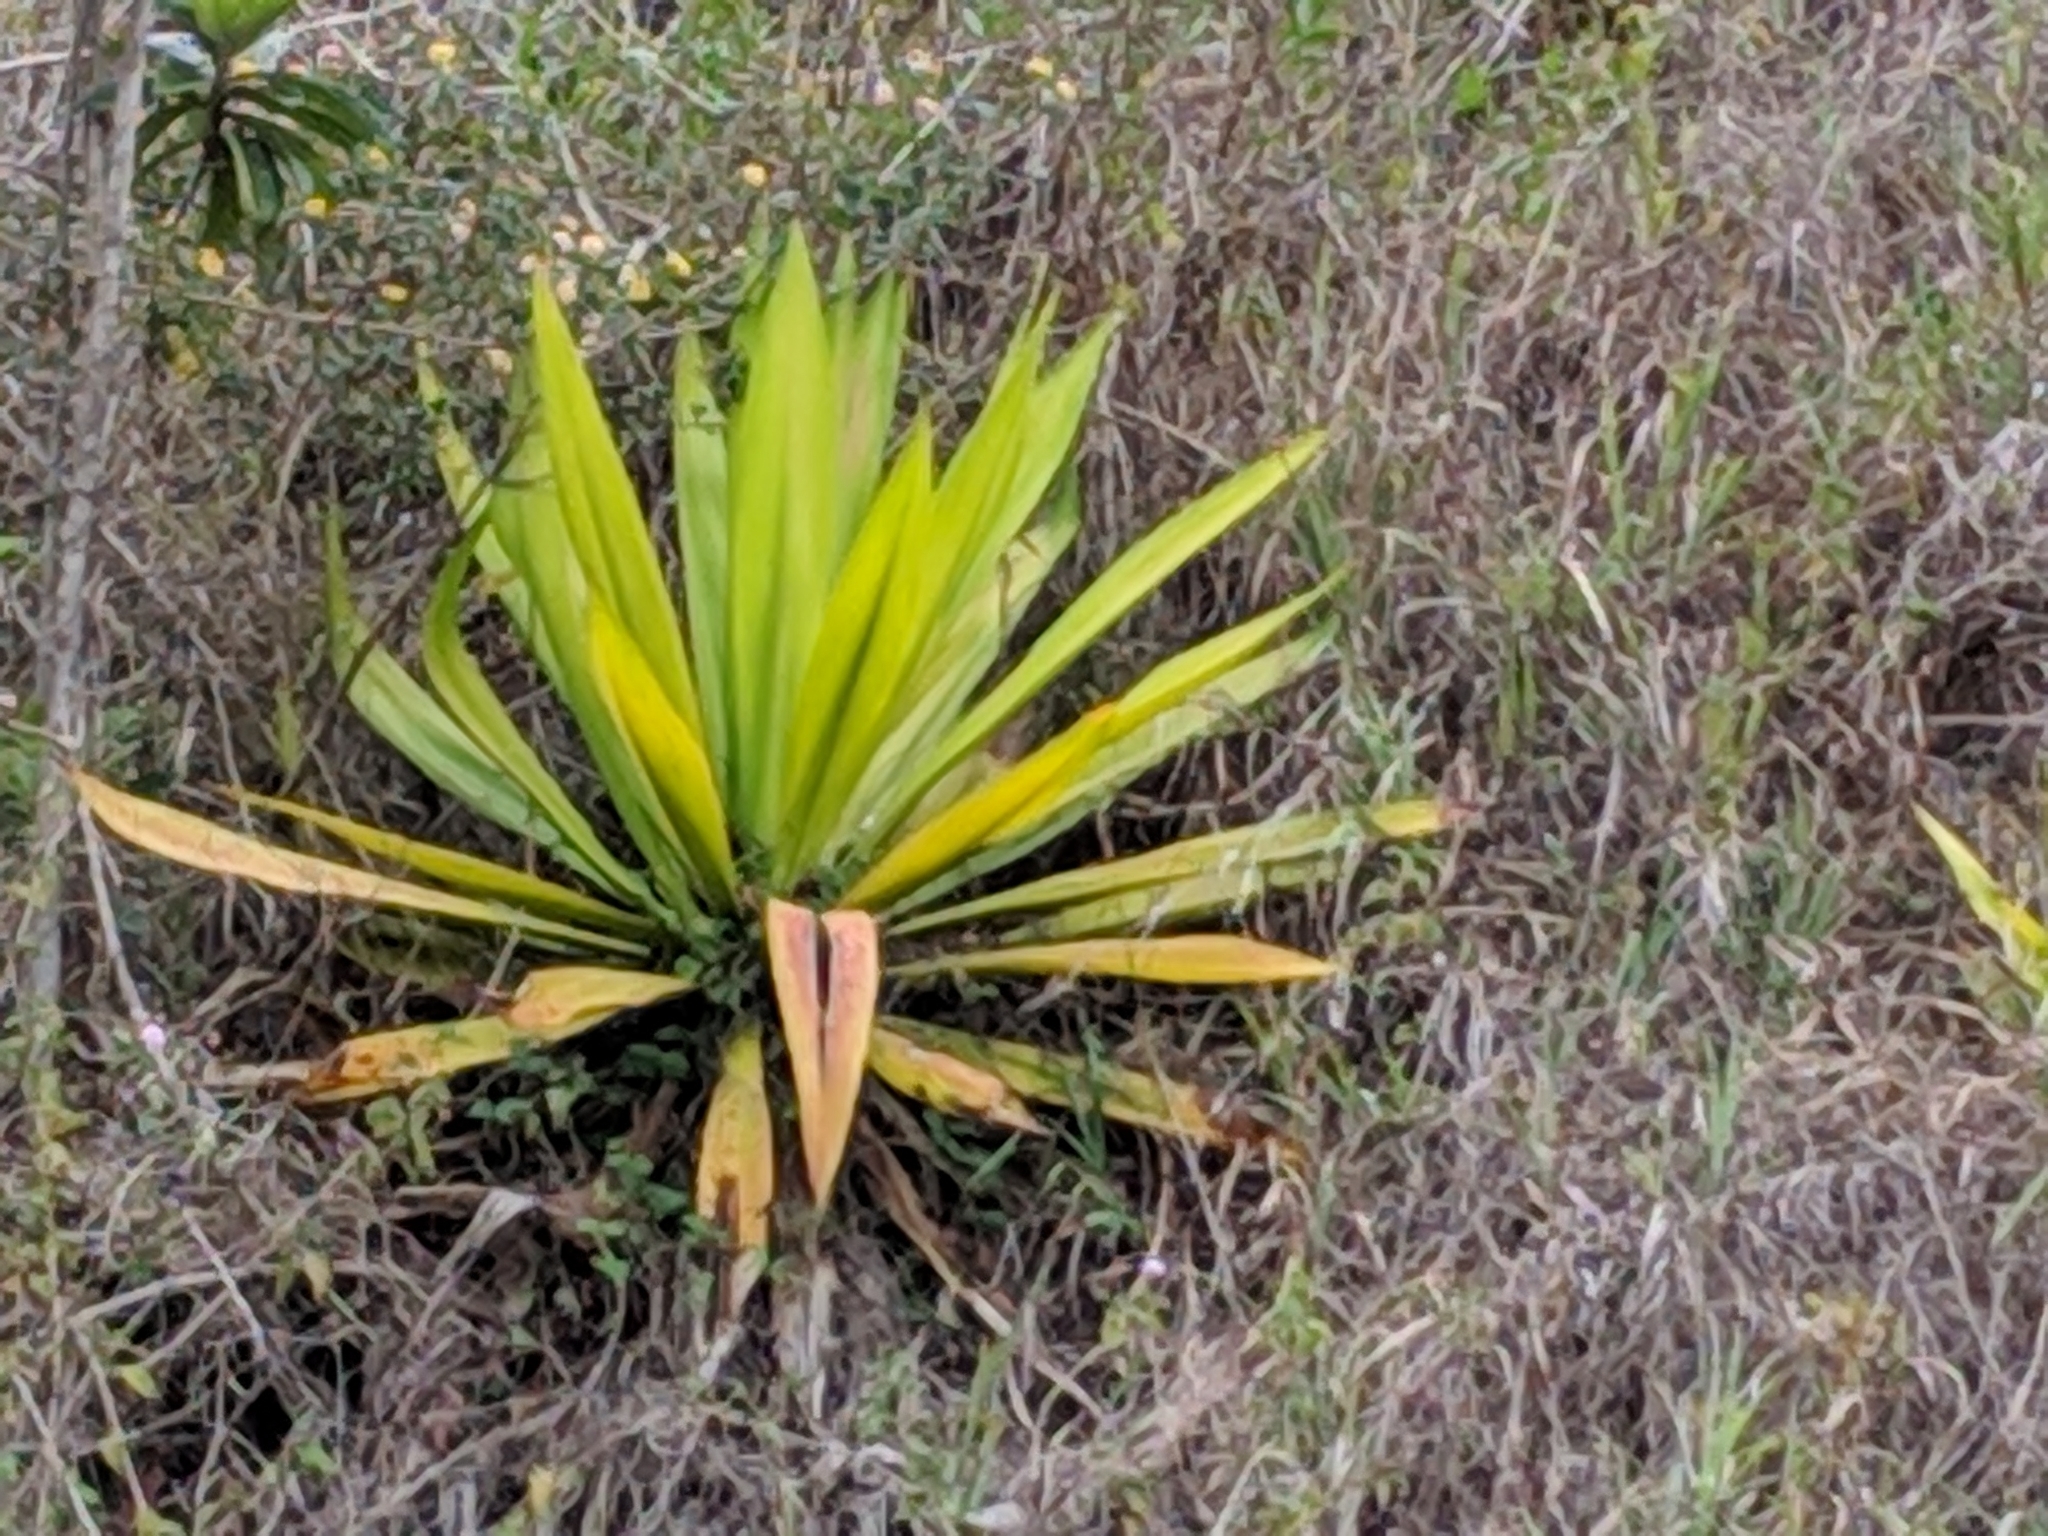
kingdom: Plantae
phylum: Tracheophyta
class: Liliopsida
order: Asparagales
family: Asparagaceae
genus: Furcraea
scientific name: Furcraea foetida
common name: Mauritius hemp
